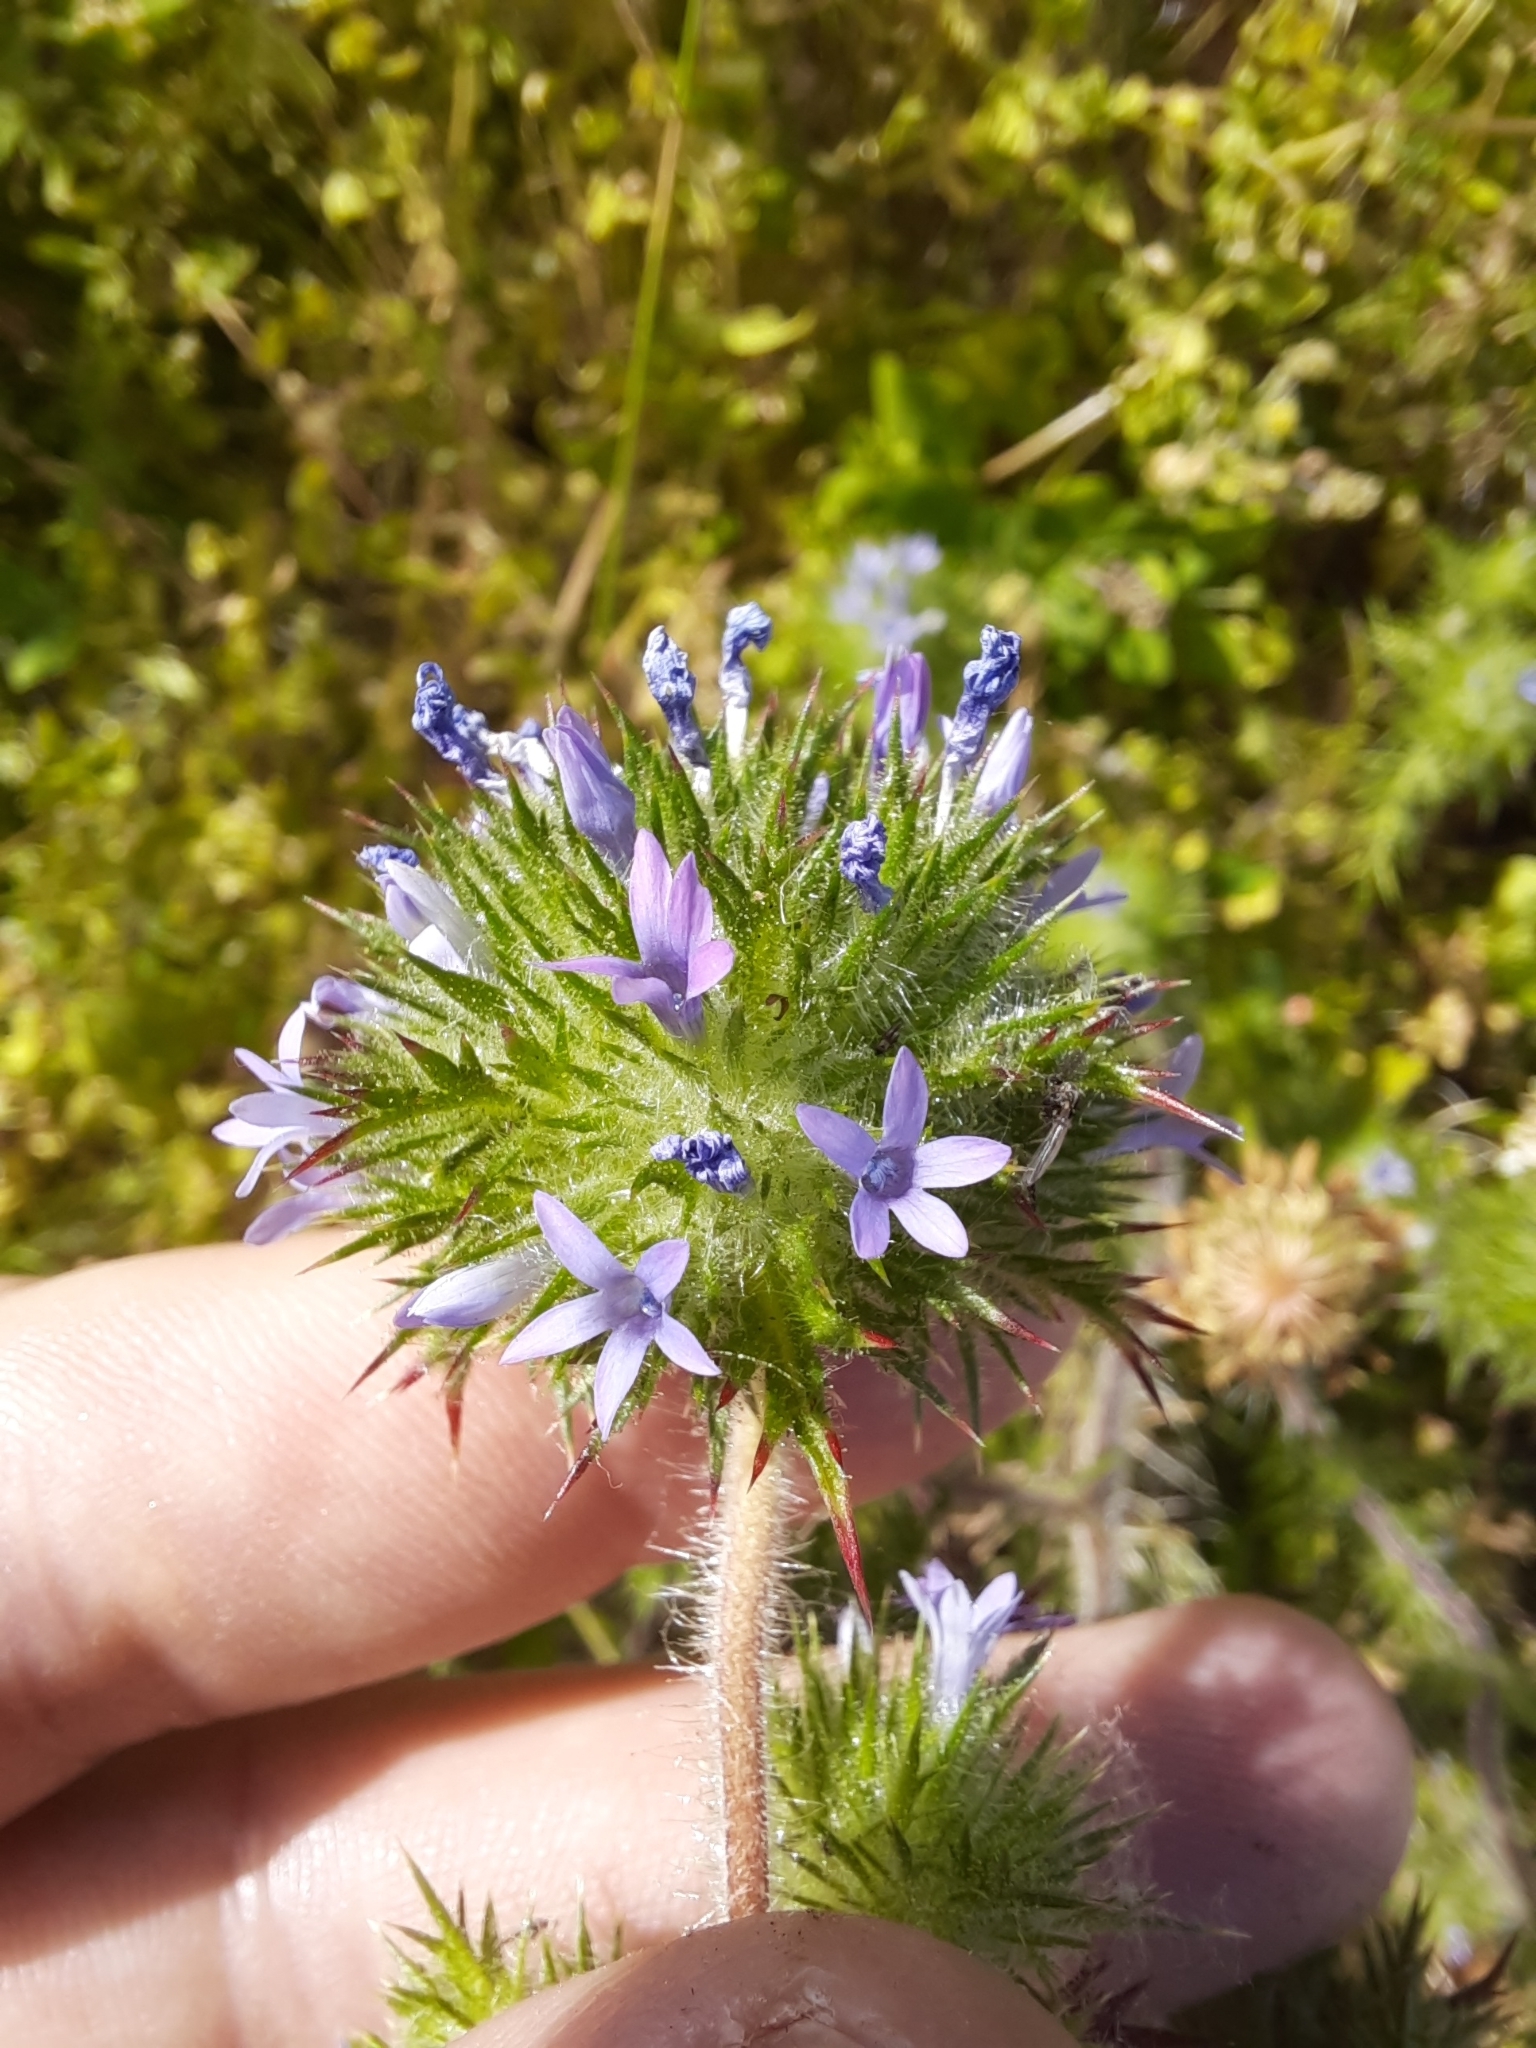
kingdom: Plantae
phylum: Tracheophyta
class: Magnoliopsida
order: Ericales
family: Polemoniaceae
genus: Navarretia
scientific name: Navarretia squarrosa
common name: Skunkweed
